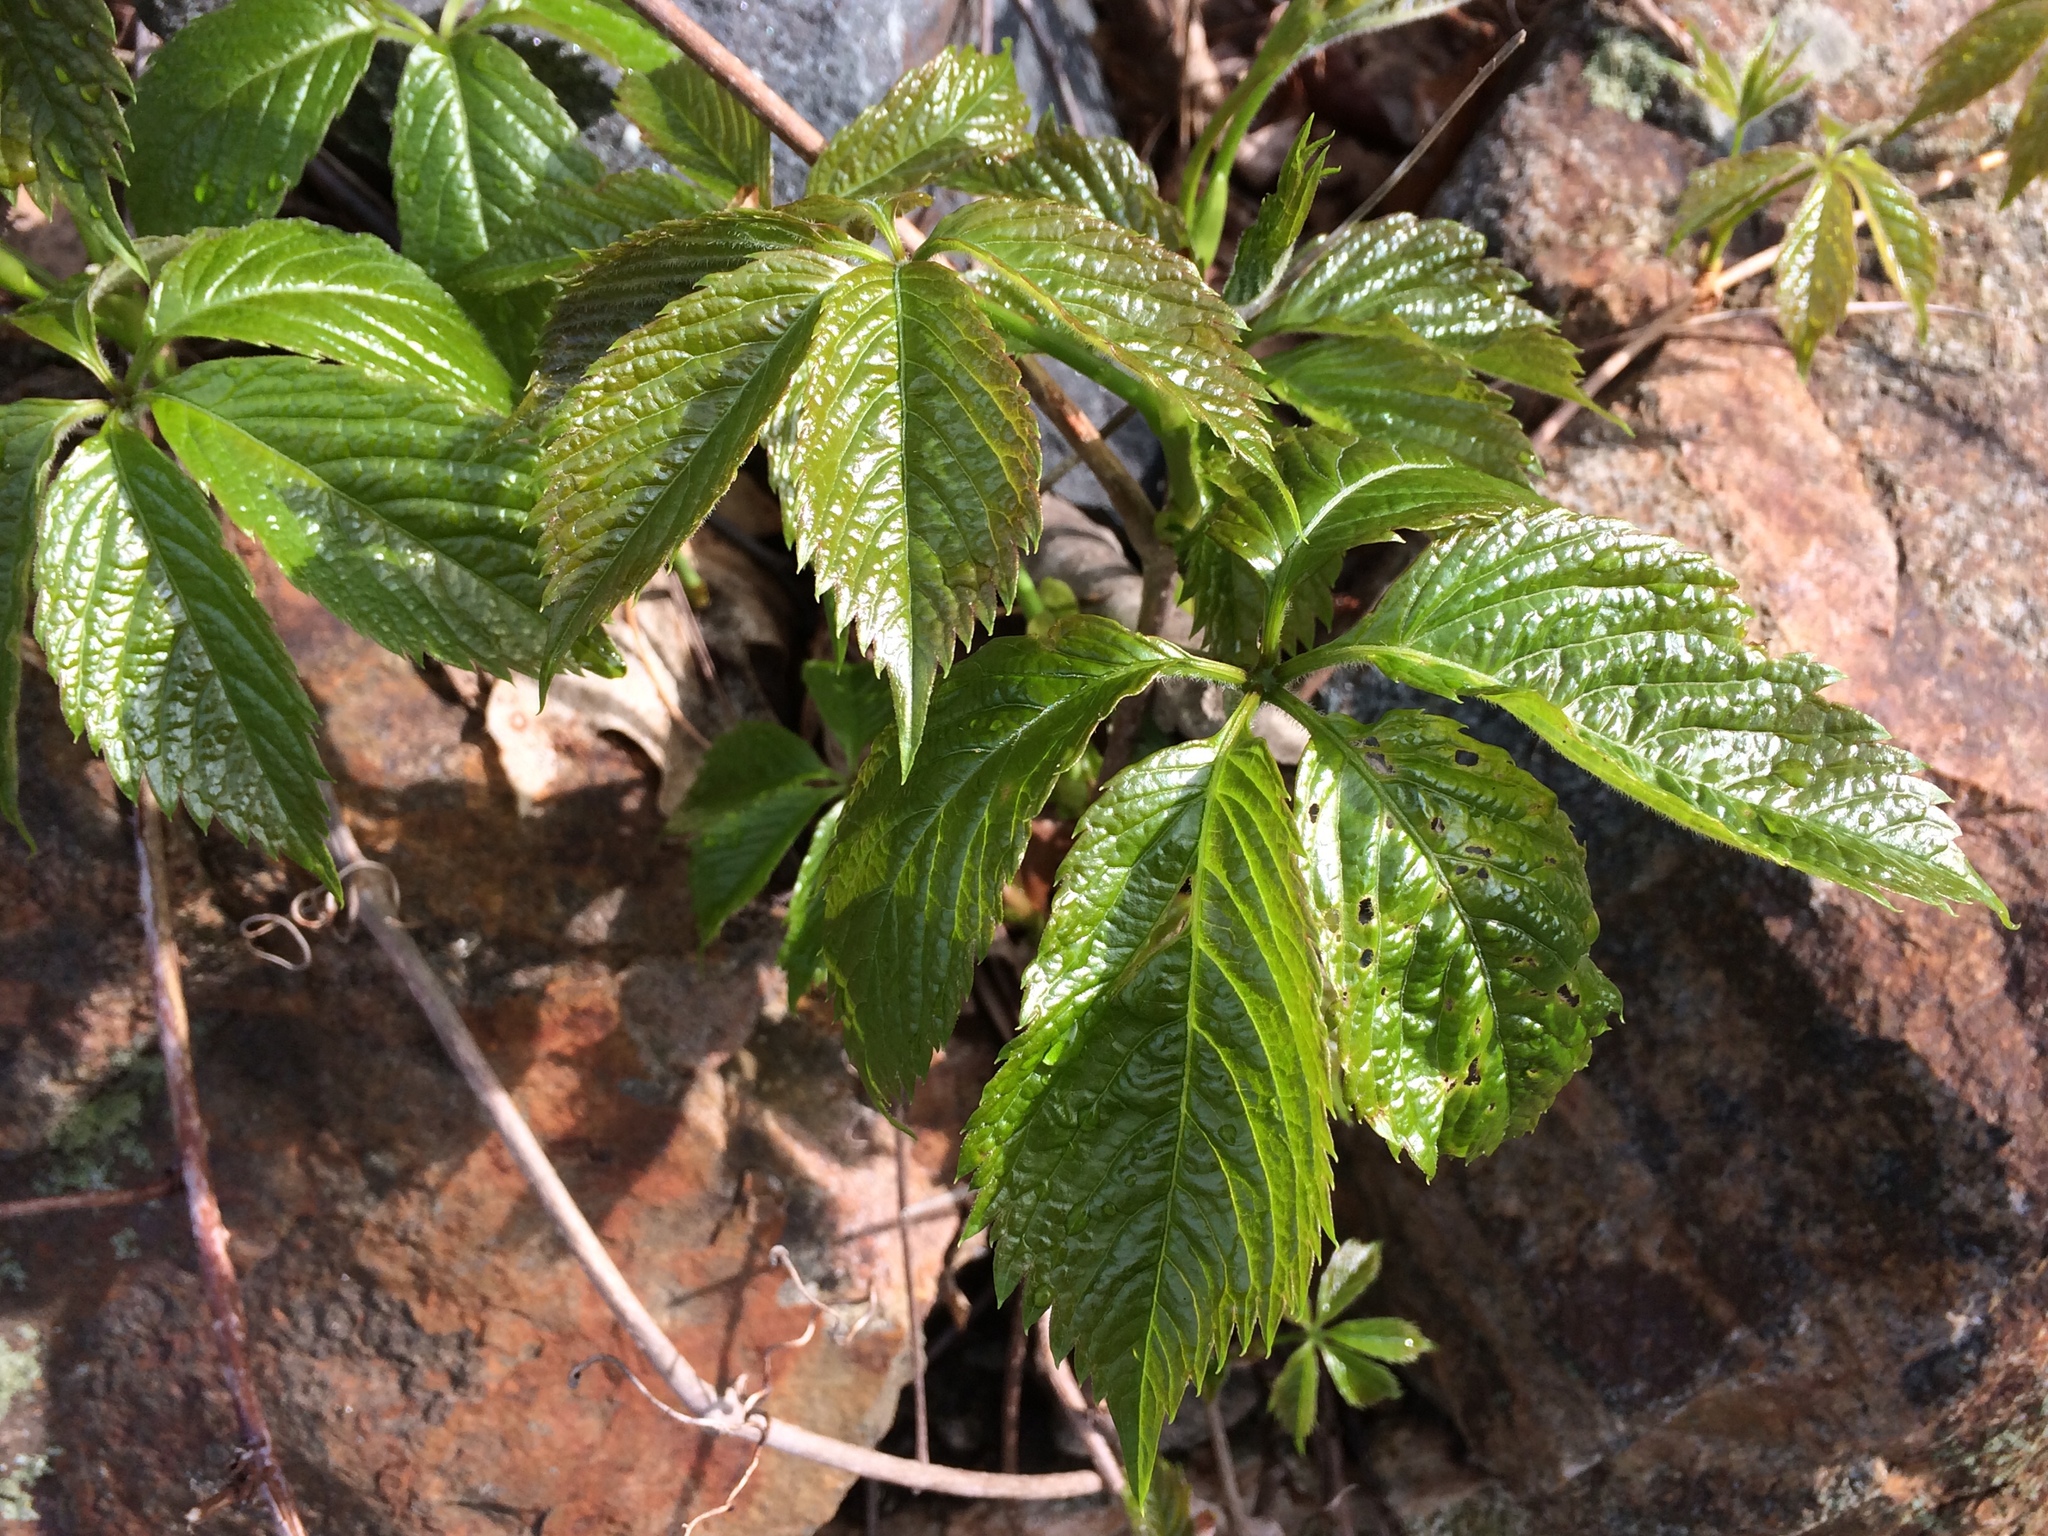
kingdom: Plantae
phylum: Tracheophyta
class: Magnoliopsida
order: Vitales
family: Vitaceae
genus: Parthenocissus
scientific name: Parthenocissus quinquefolia
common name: Virginia-creeper
